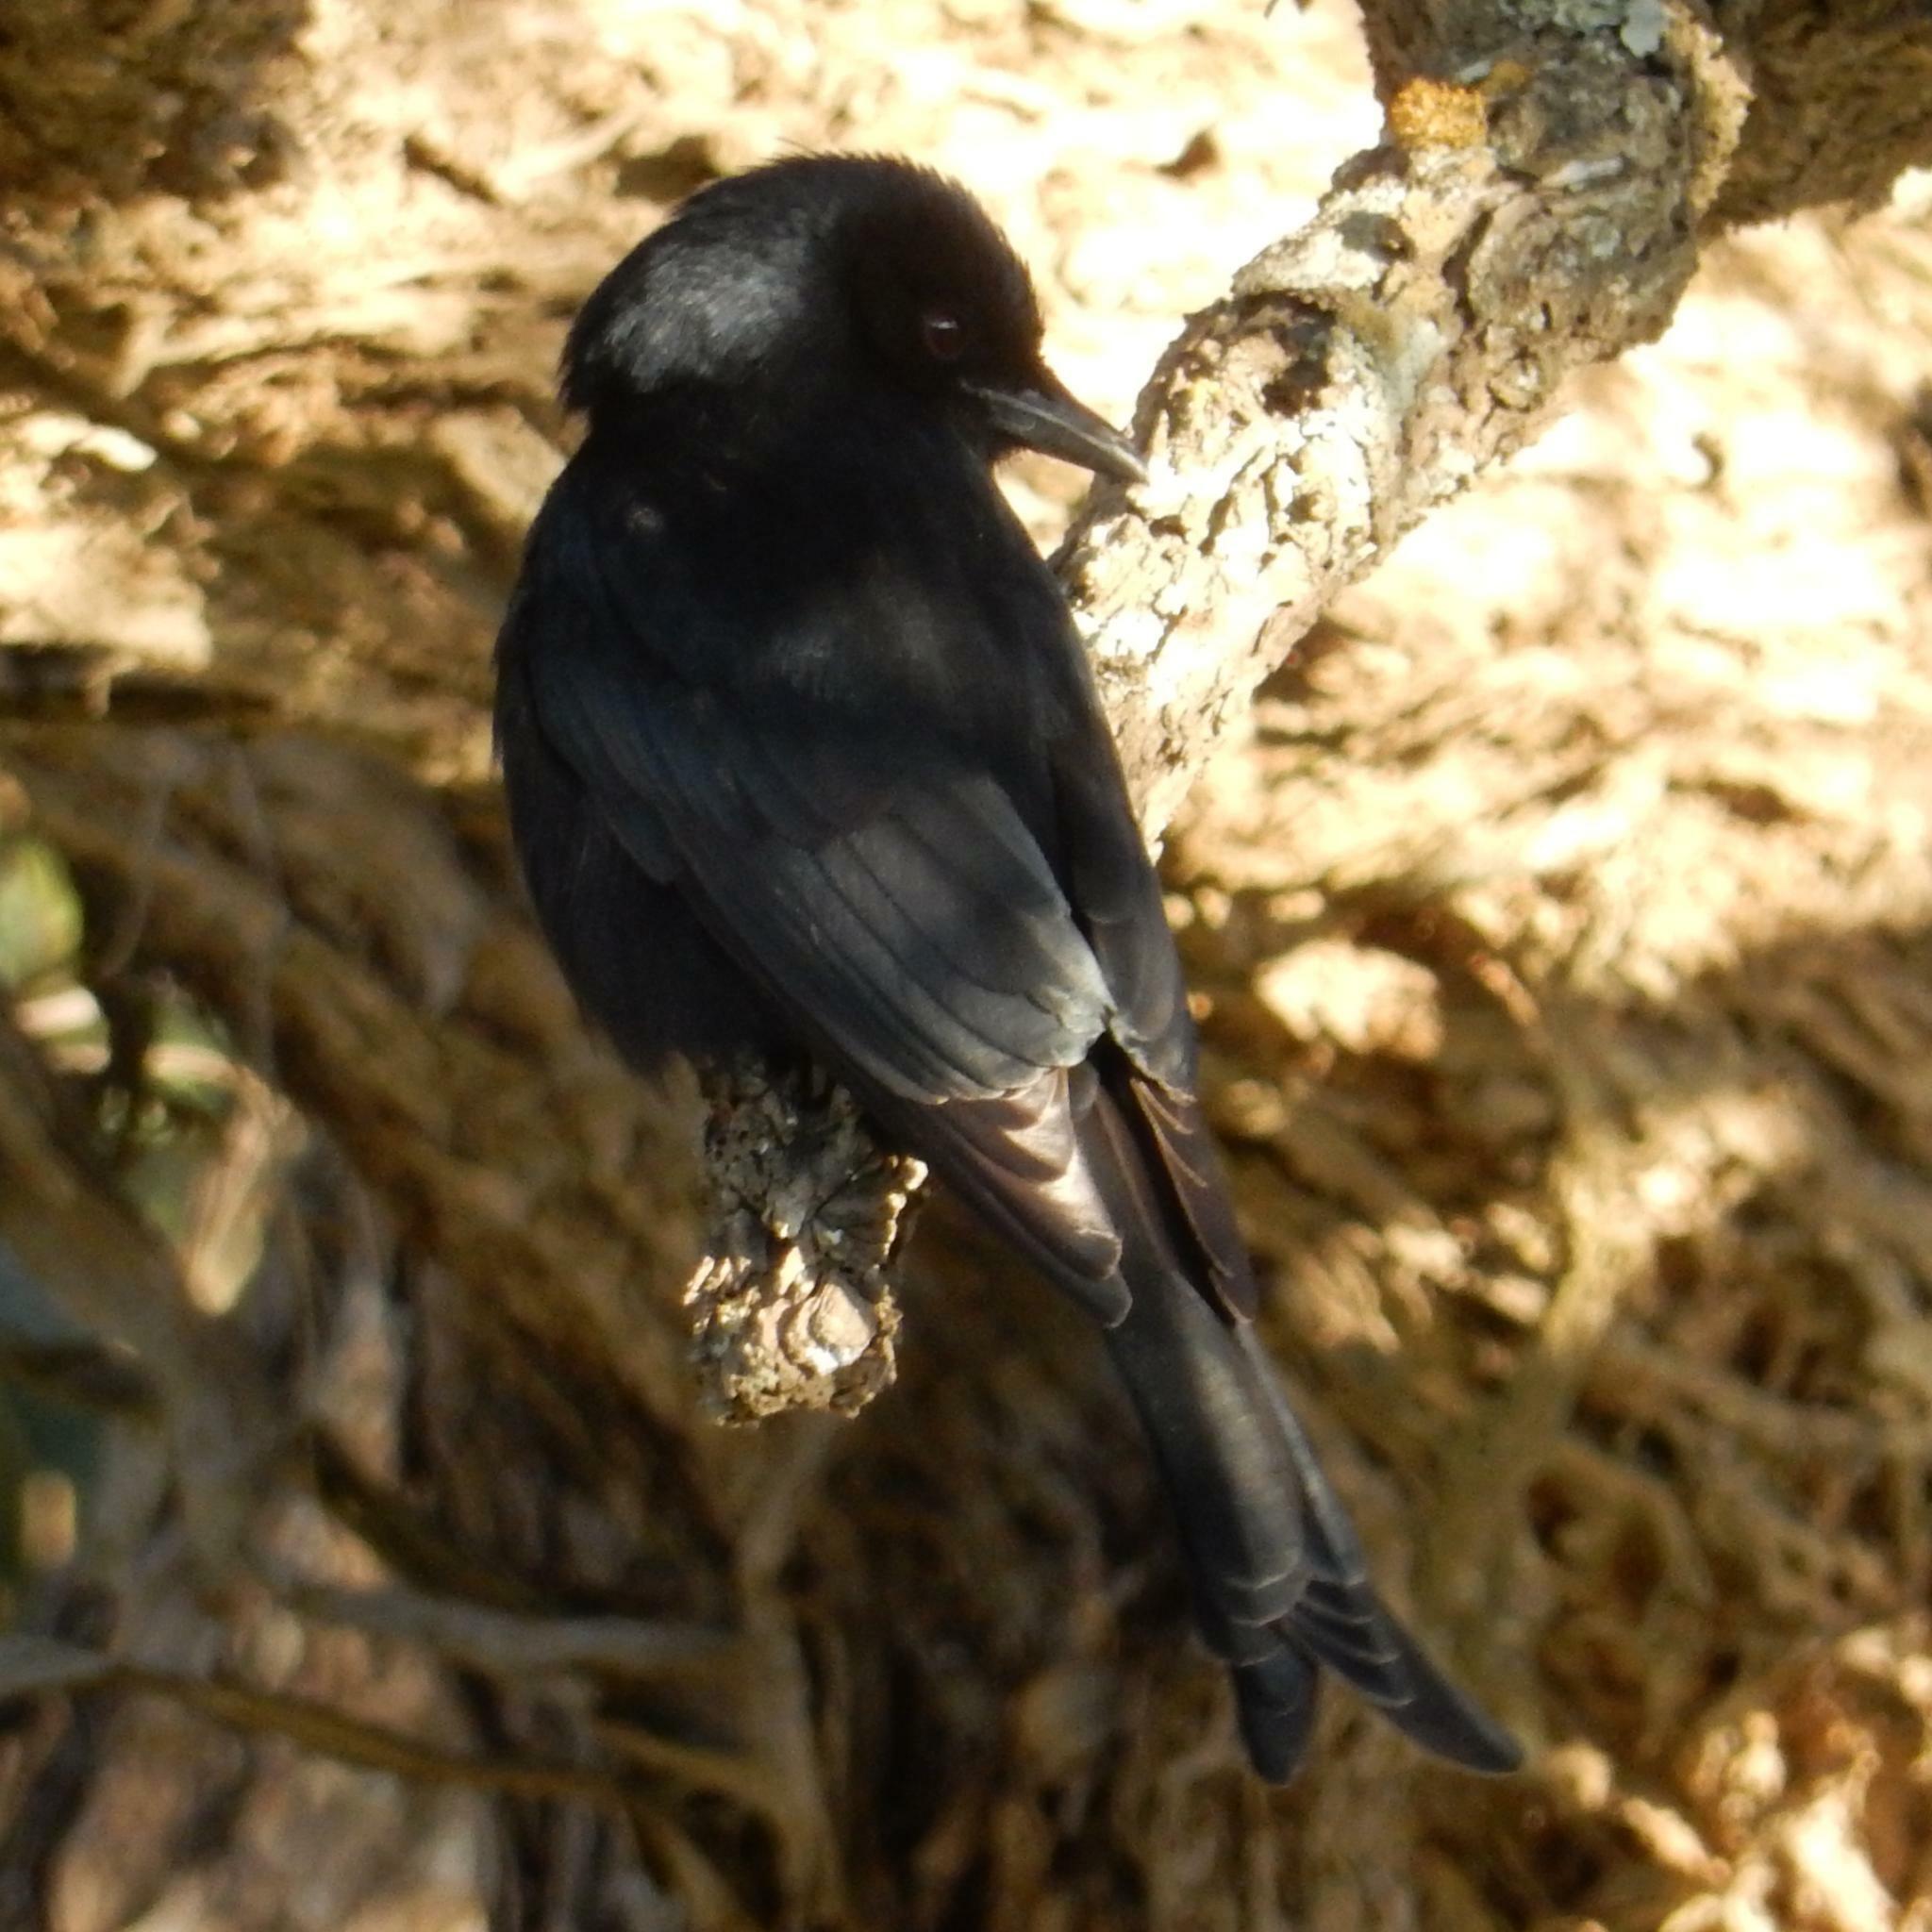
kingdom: Animalia
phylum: Chordata
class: Aves
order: Passeriformes
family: Dicruridae
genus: Dicrurus
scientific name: Dicrurus adsimilis
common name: Fork-tailed drongo
